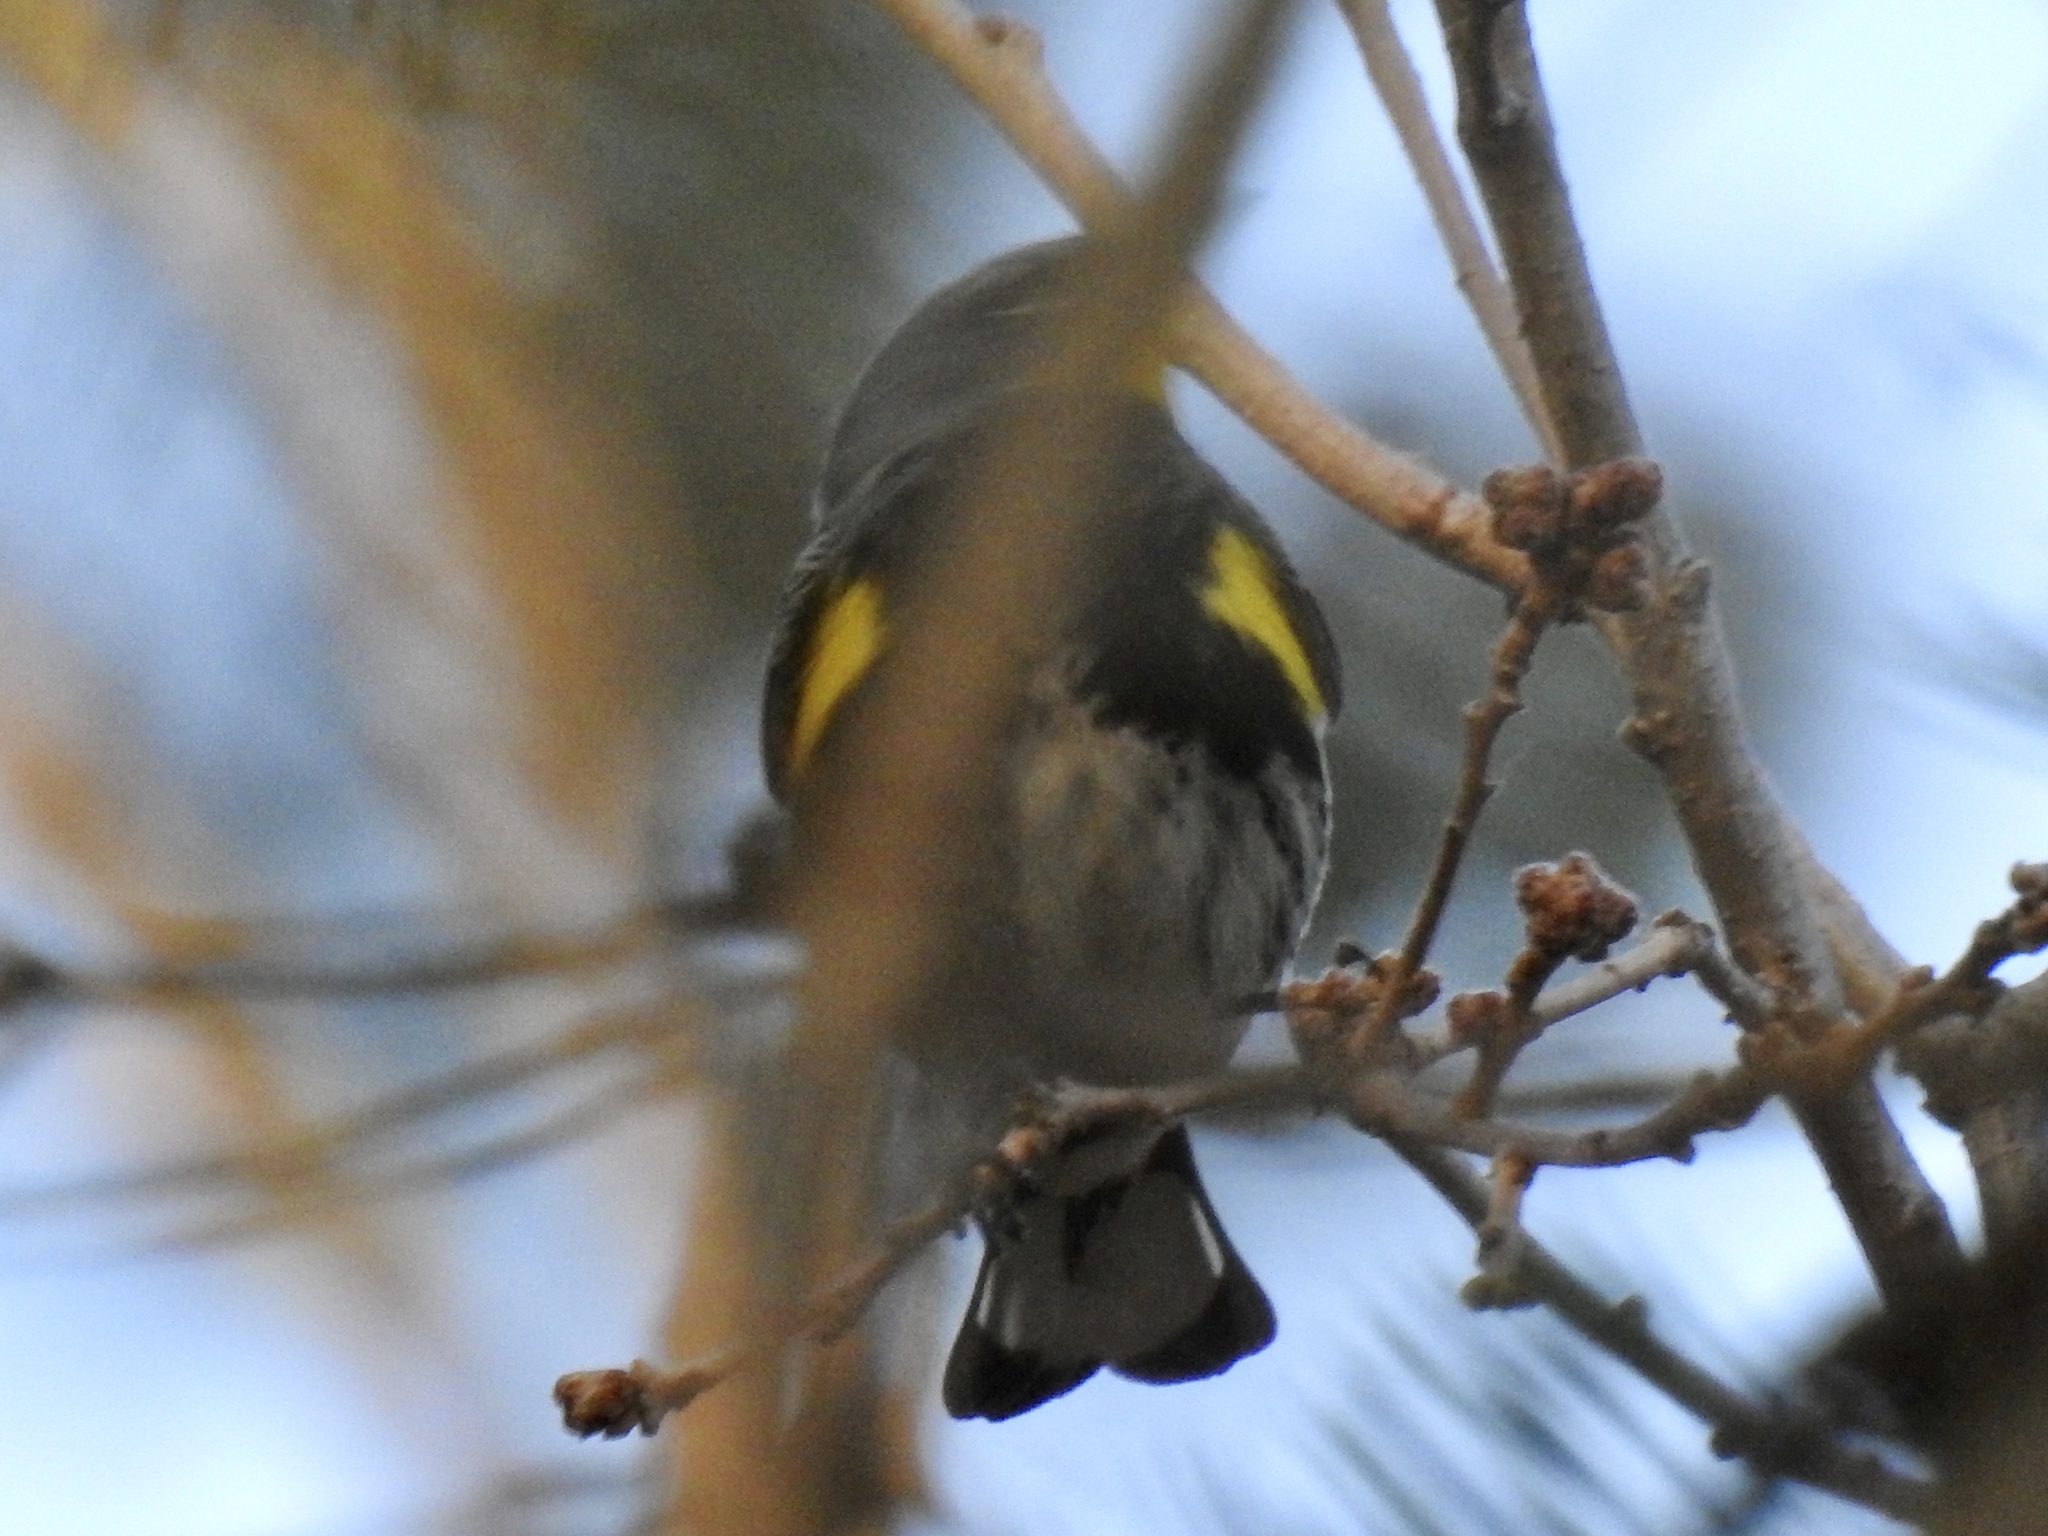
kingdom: Animalia
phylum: Chordata
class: Aves
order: Passeriformes
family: Parulidae
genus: Setophaga
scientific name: Setophaga coronata
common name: Myrtle warbler
